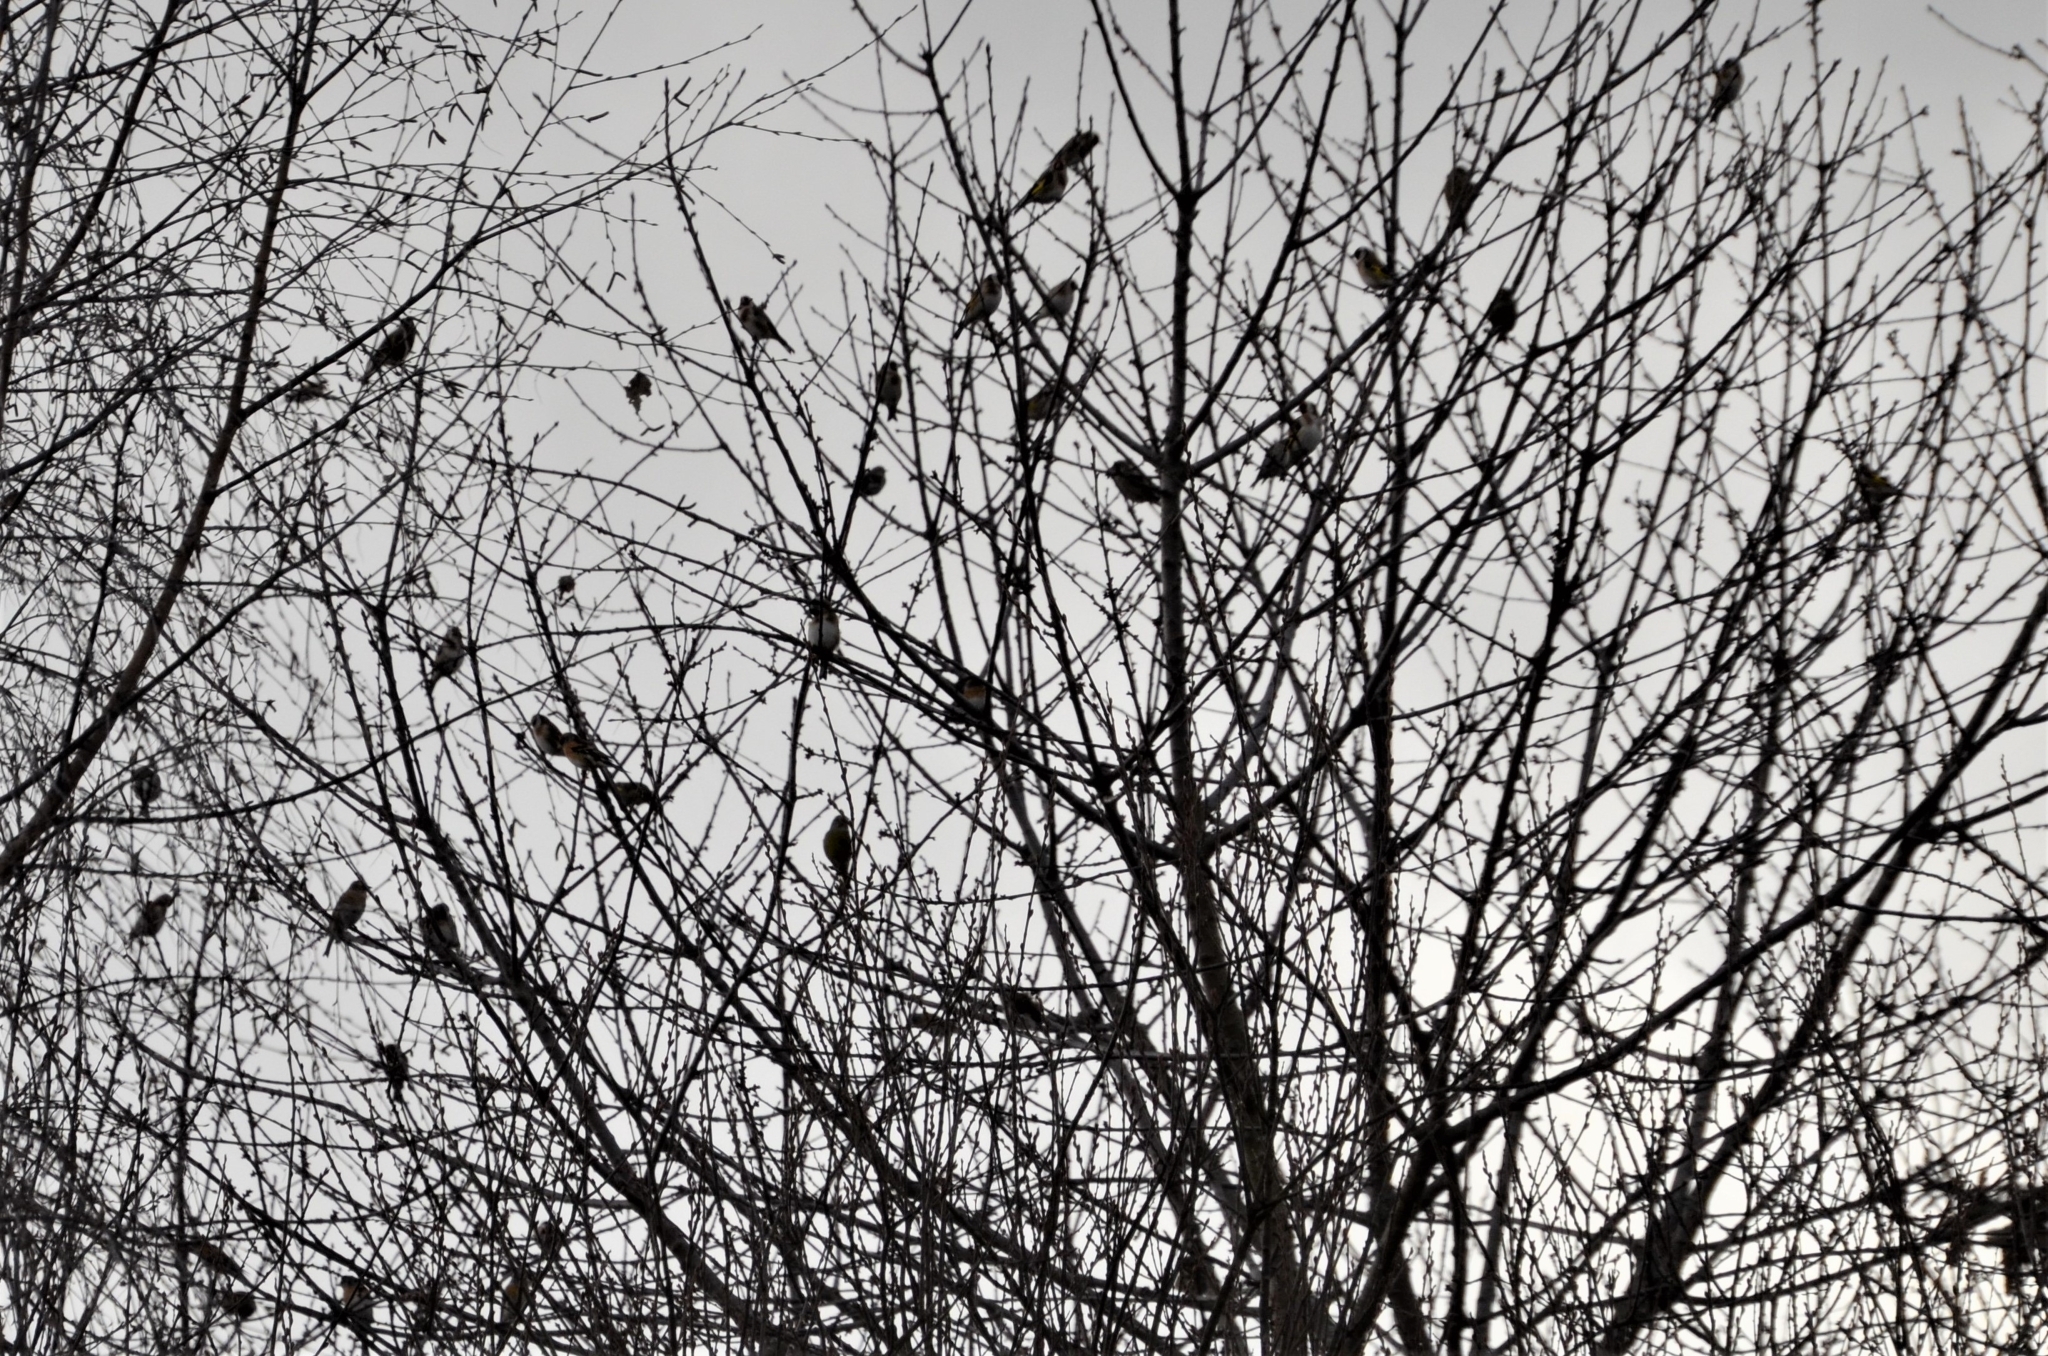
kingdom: Animalia
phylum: Chordata
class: Aves
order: Passeriformes
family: Fringillidae
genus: Carduelis
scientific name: Carduelis carduelis
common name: European goldfinch
